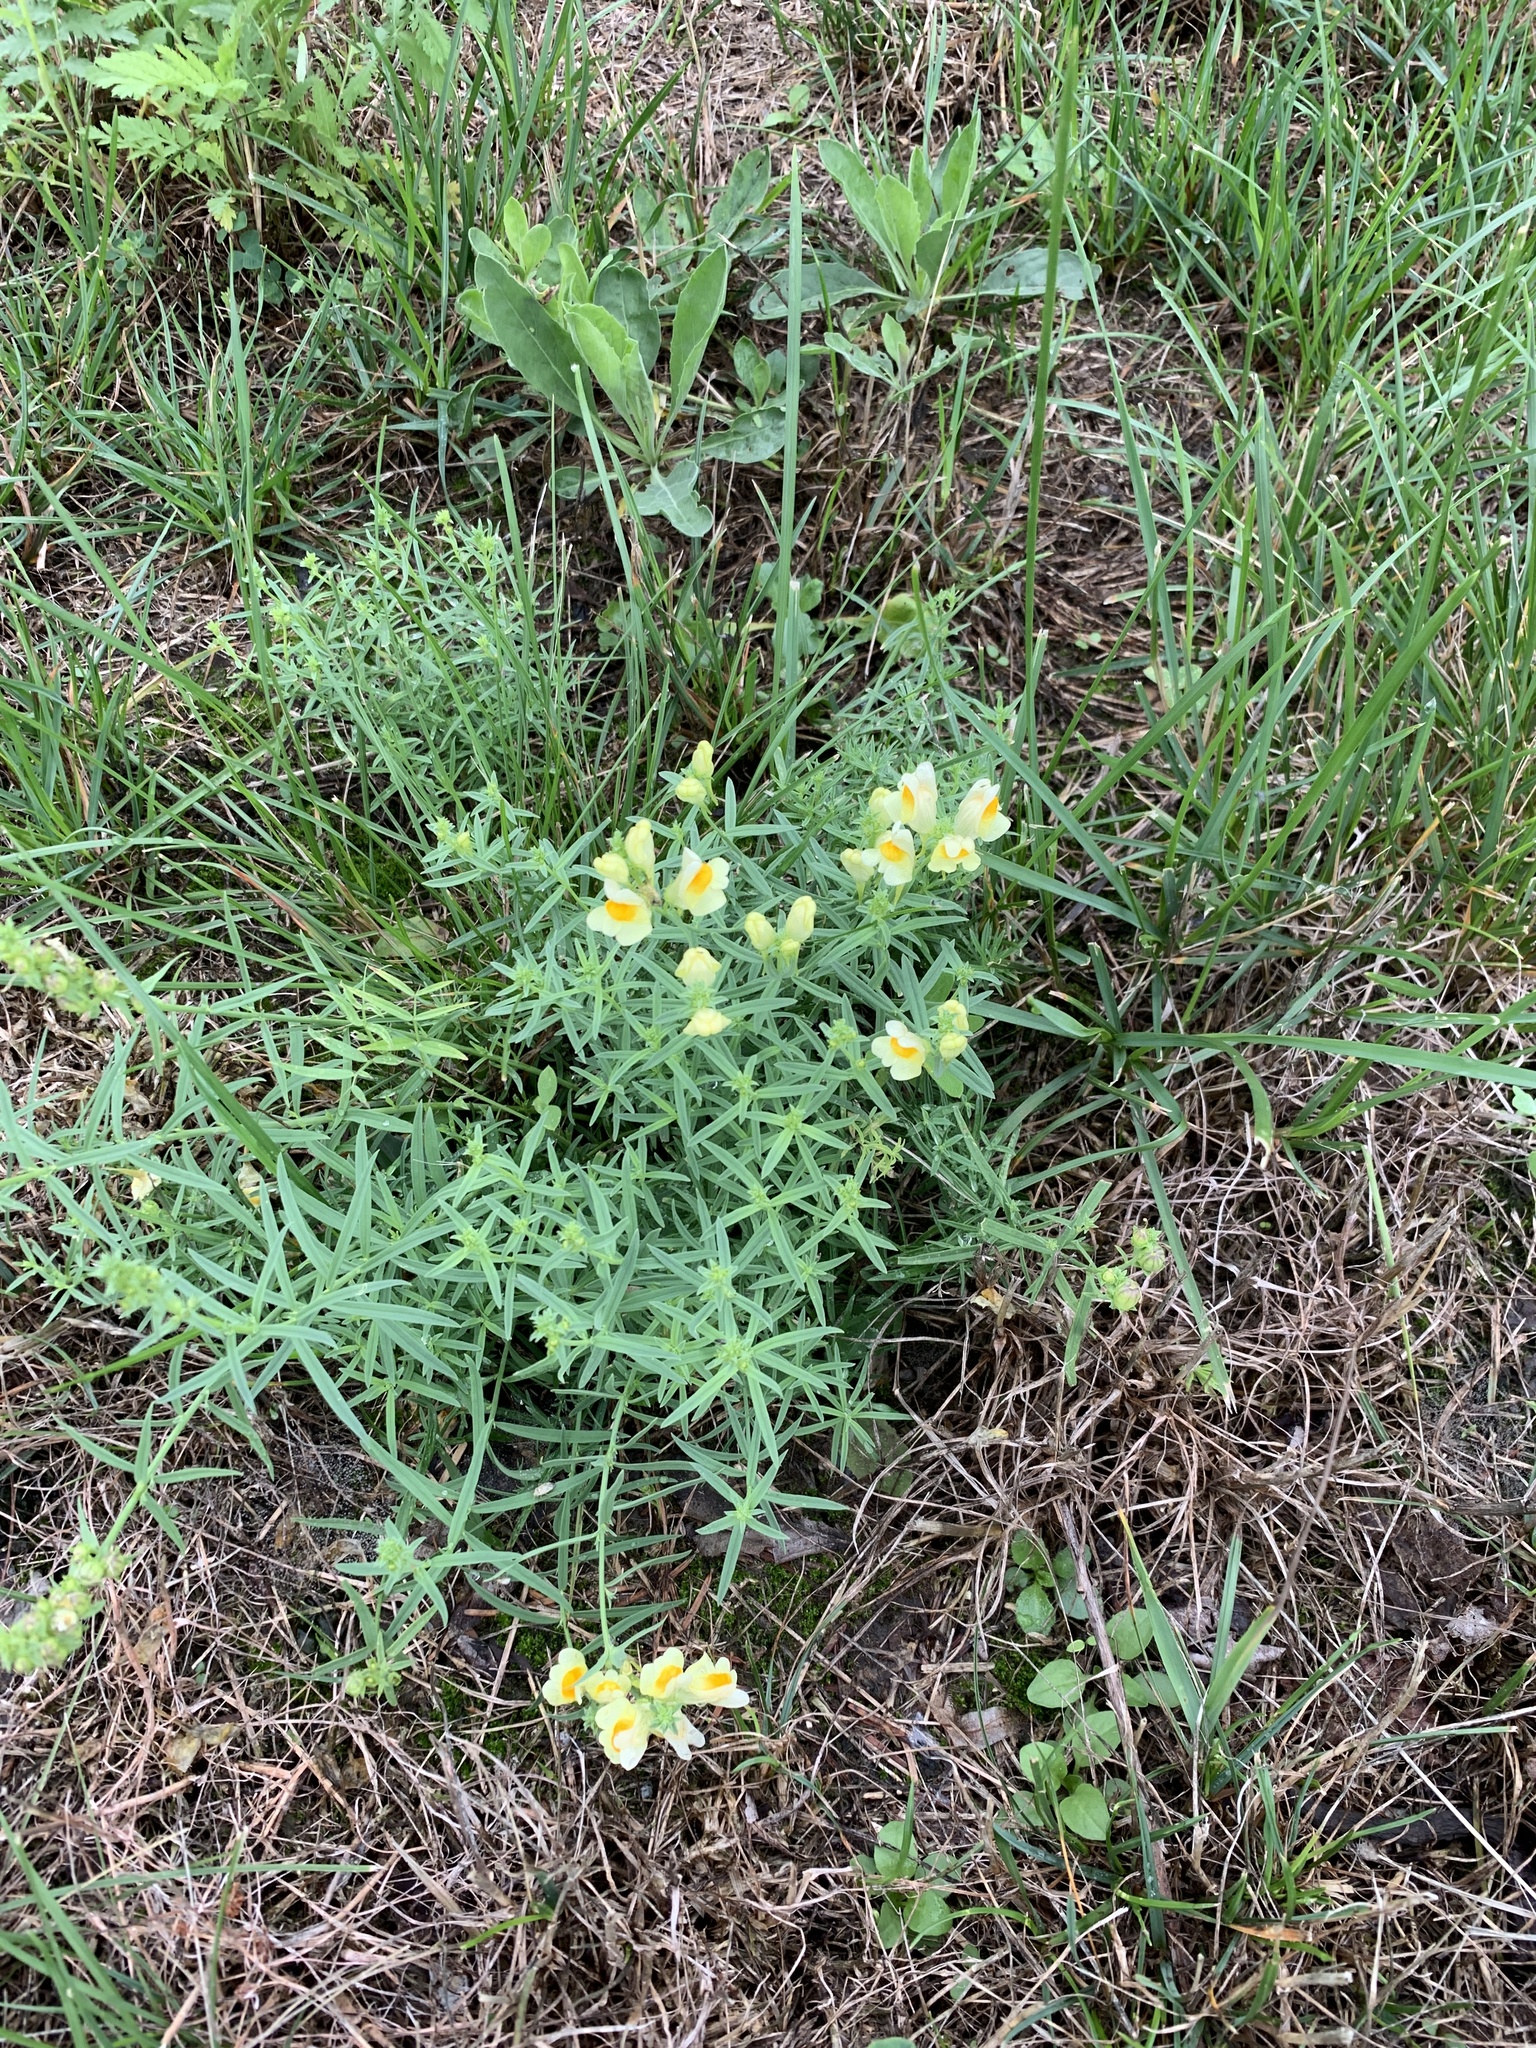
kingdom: Plantae
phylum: Tracheophyta
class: Magnoliopsida
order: Lamiales
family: Plantaginaceae
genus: Linaria
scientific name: Linaria vulgaris
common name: Butter and eggs
